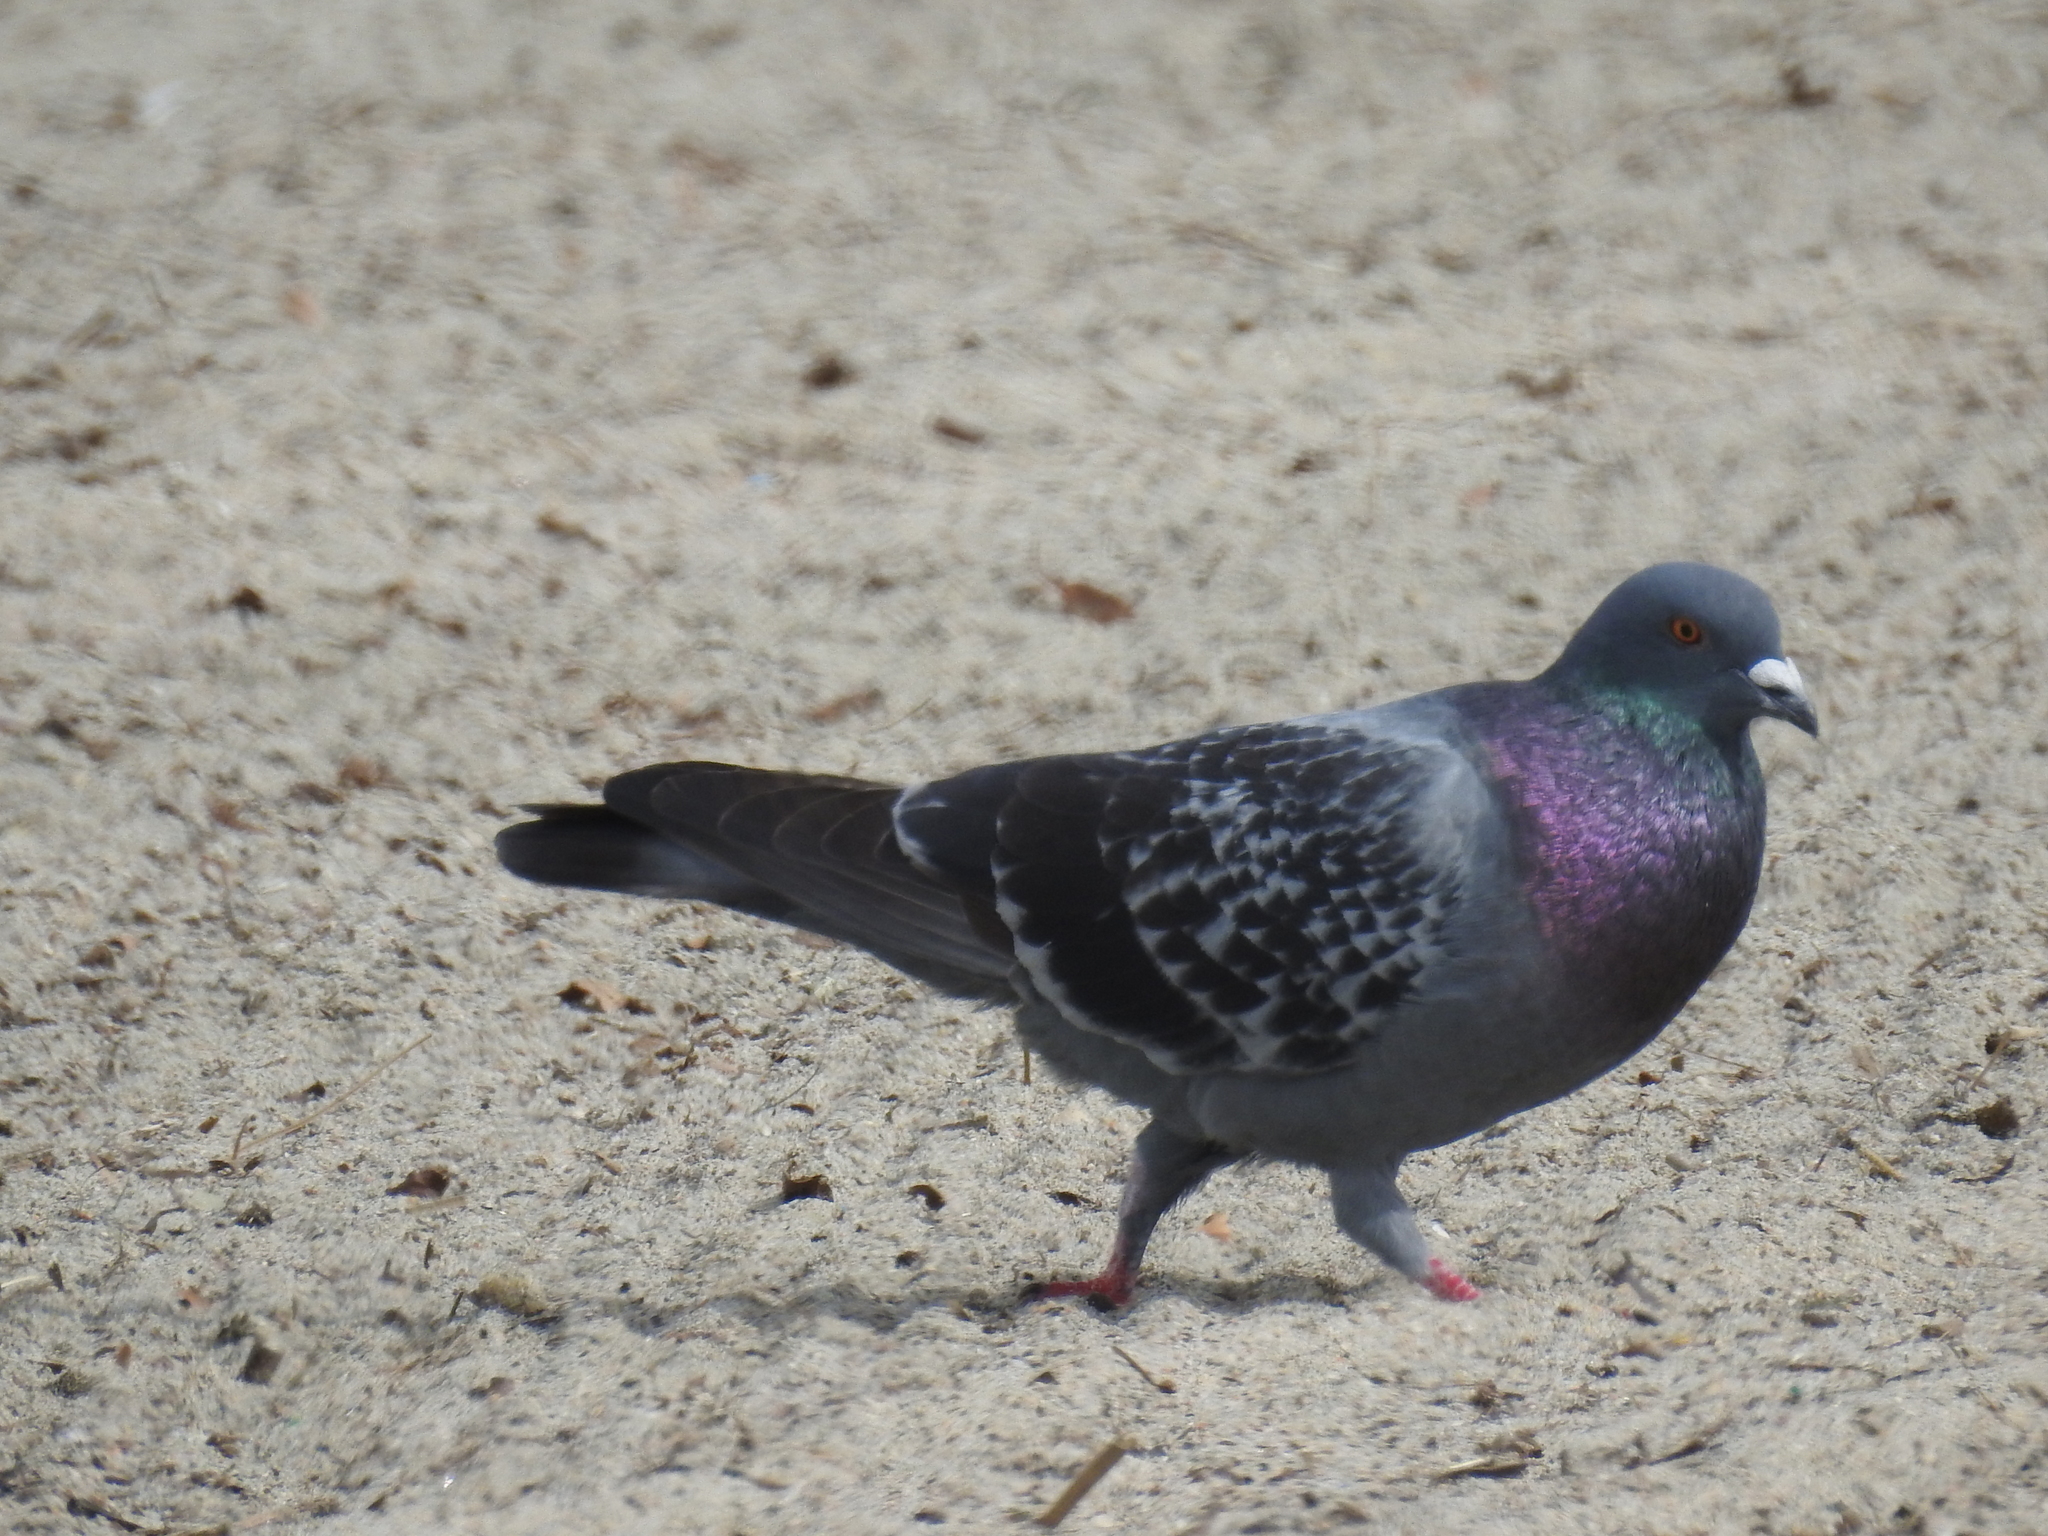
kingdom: Animalia
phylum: Chordata
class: Aves
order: Columbiformes
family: Columbidae
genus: Columba
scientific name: Columba livia
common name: Rock pigeon
